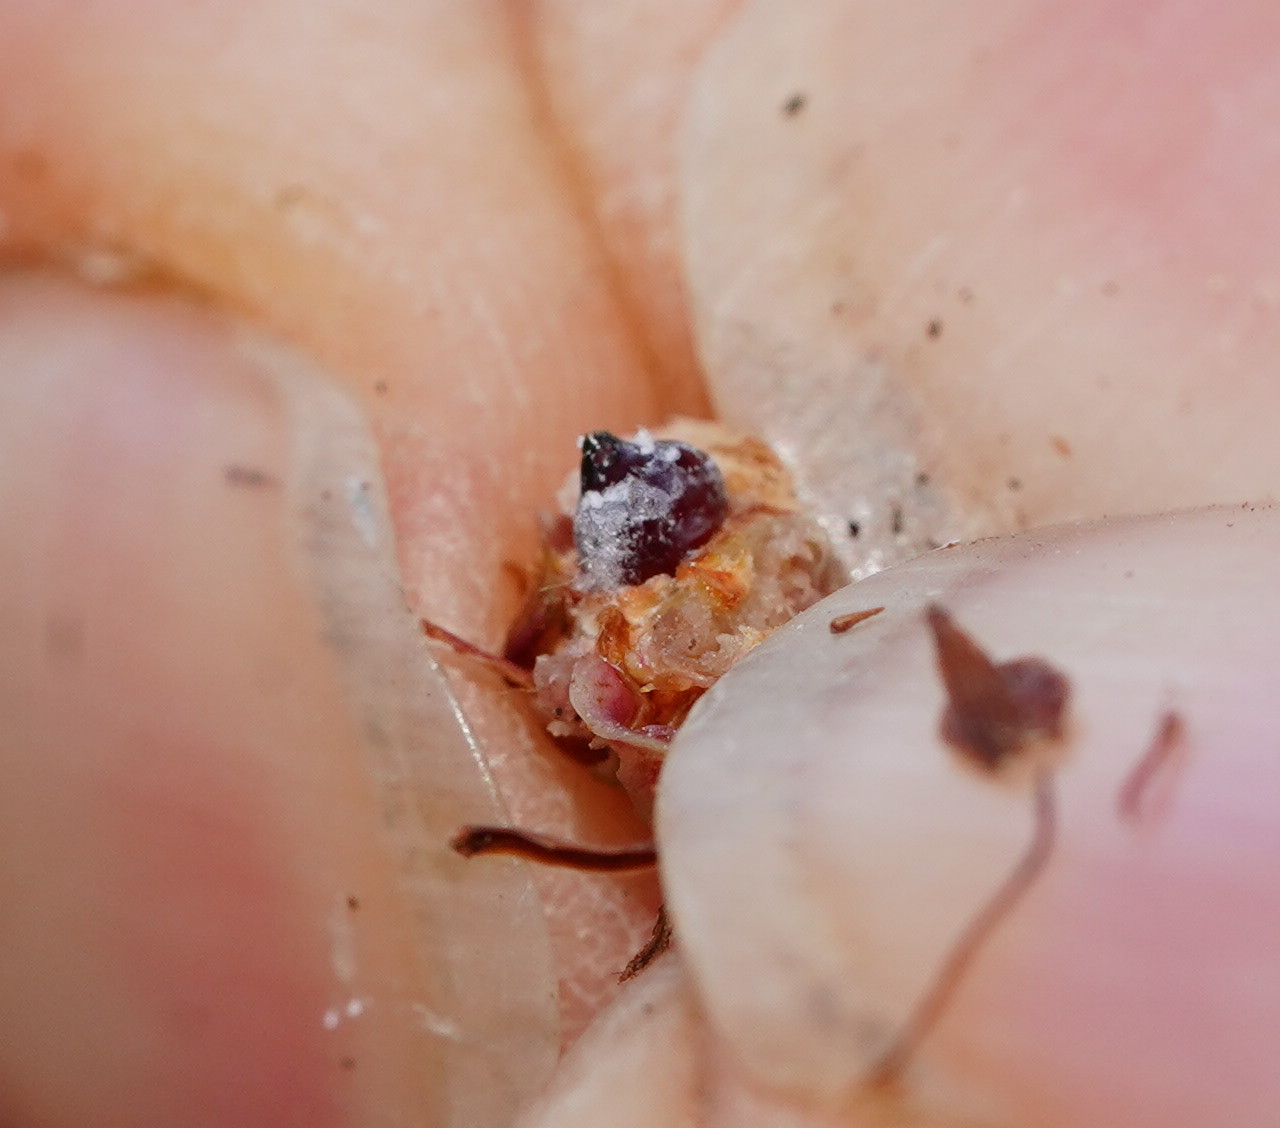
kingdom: Animalia
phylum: Arthropoda
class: Insecta
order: Hemiptera
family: Beesoniidae
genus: Beesonia
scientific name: Beesonia ferrugineus
